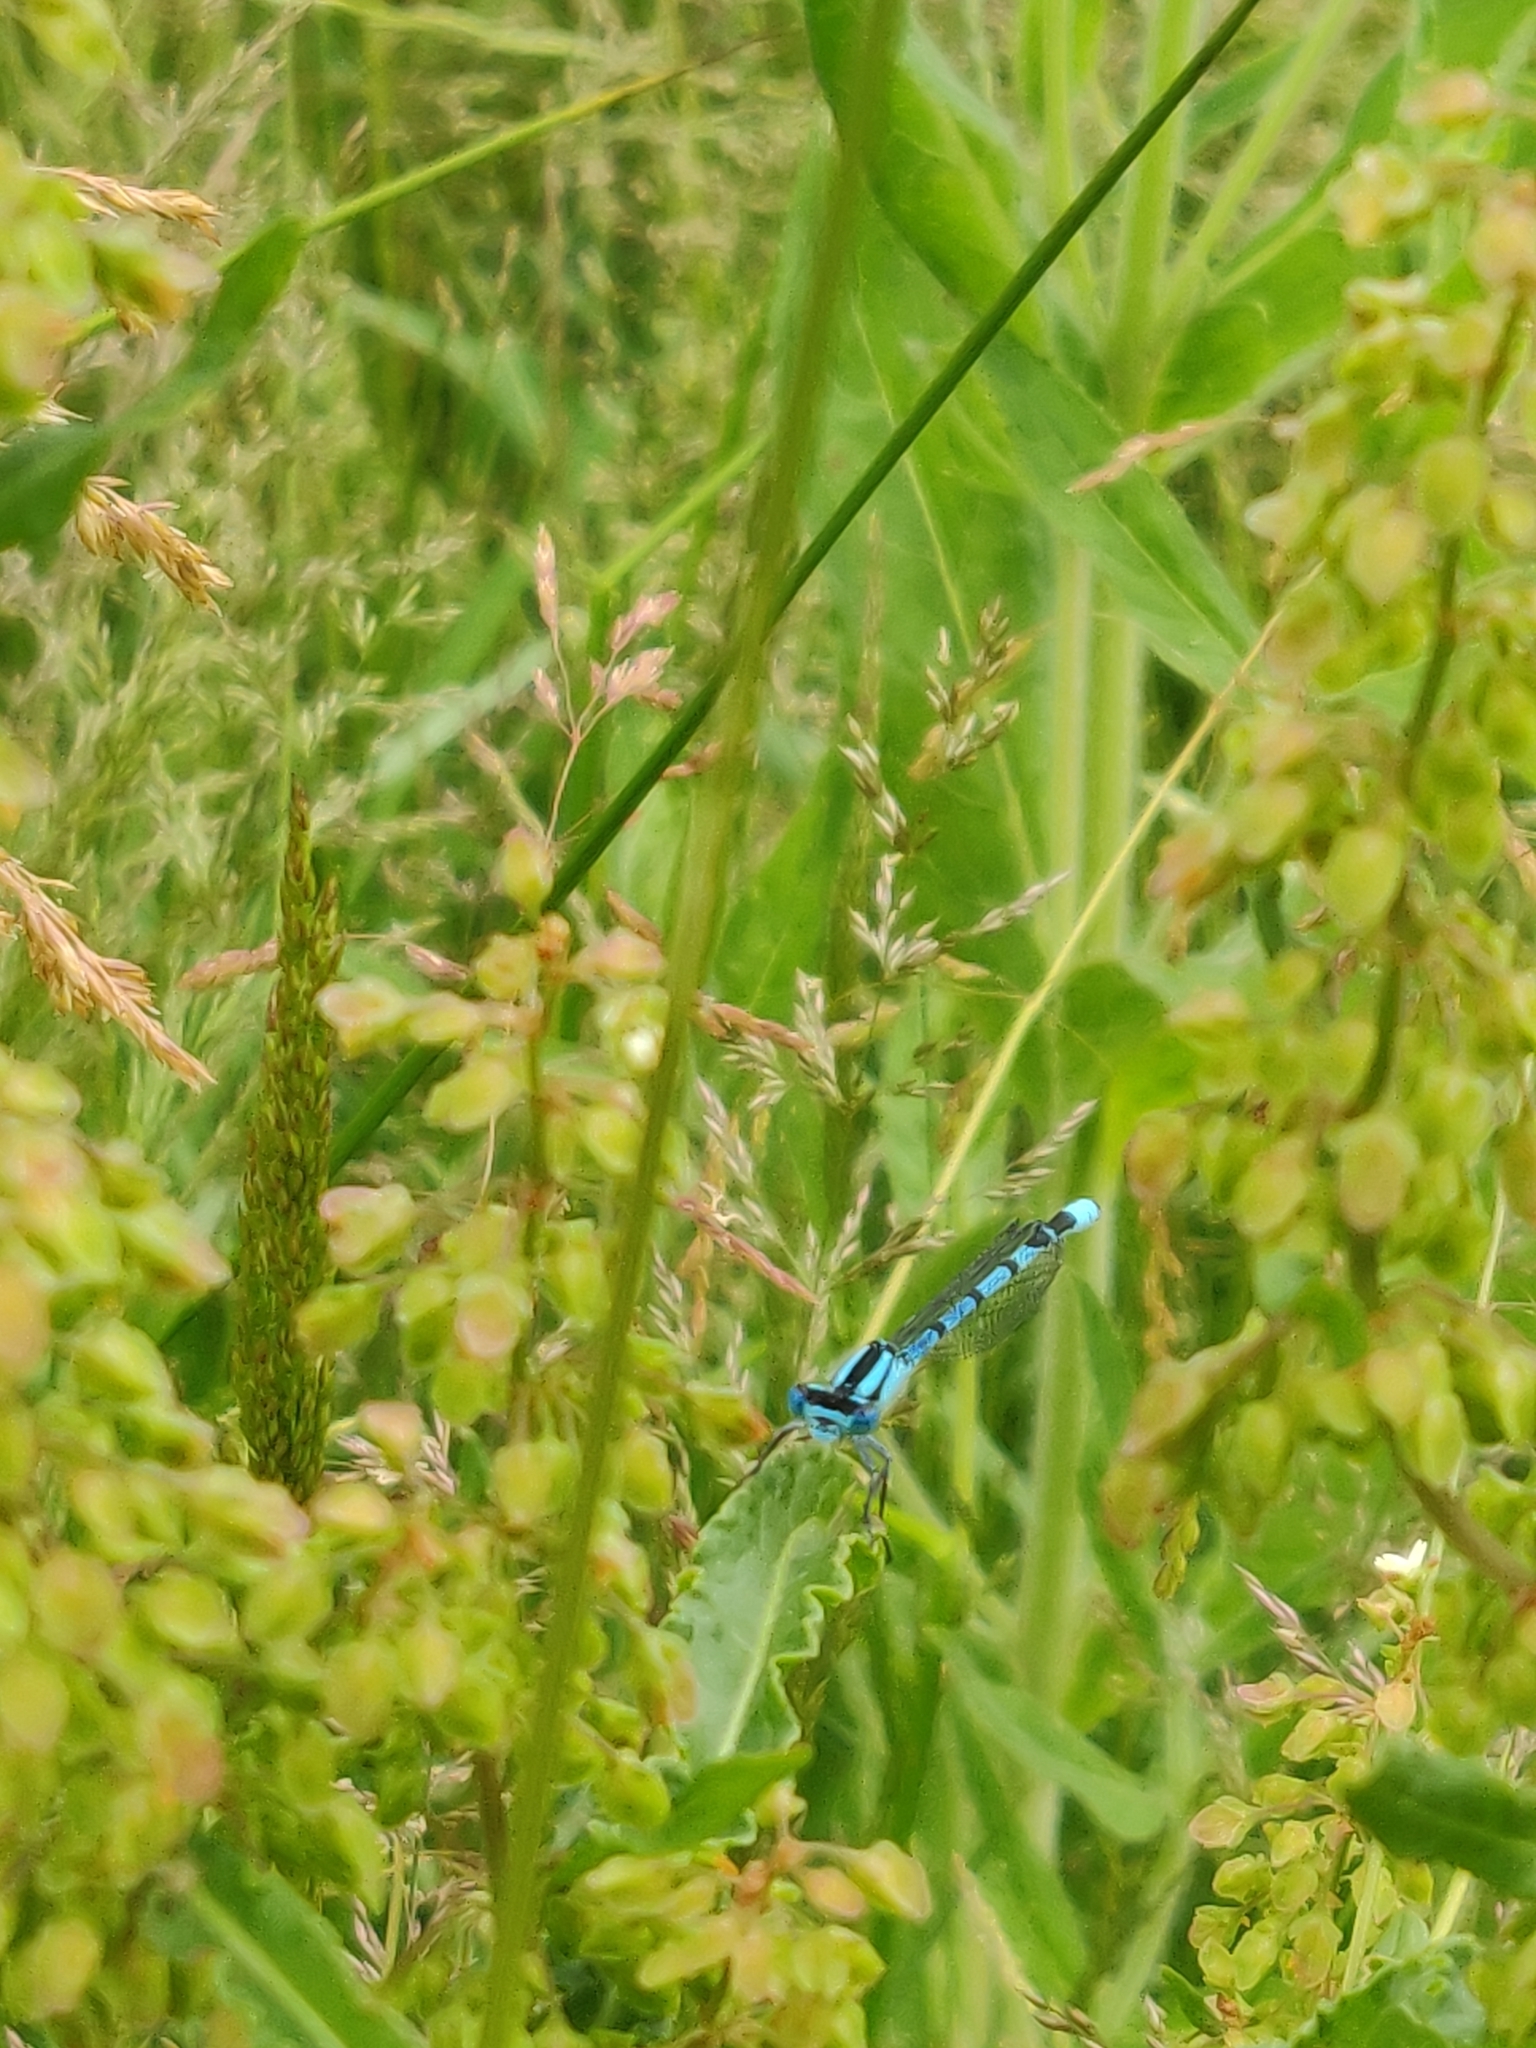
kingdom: Animalia
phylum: Arthropoda
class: Insecta
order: Odonata
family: Coenagrionidae
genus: Enallagma
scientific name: Enallagma cyathigerum
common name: Common blue damselfly
